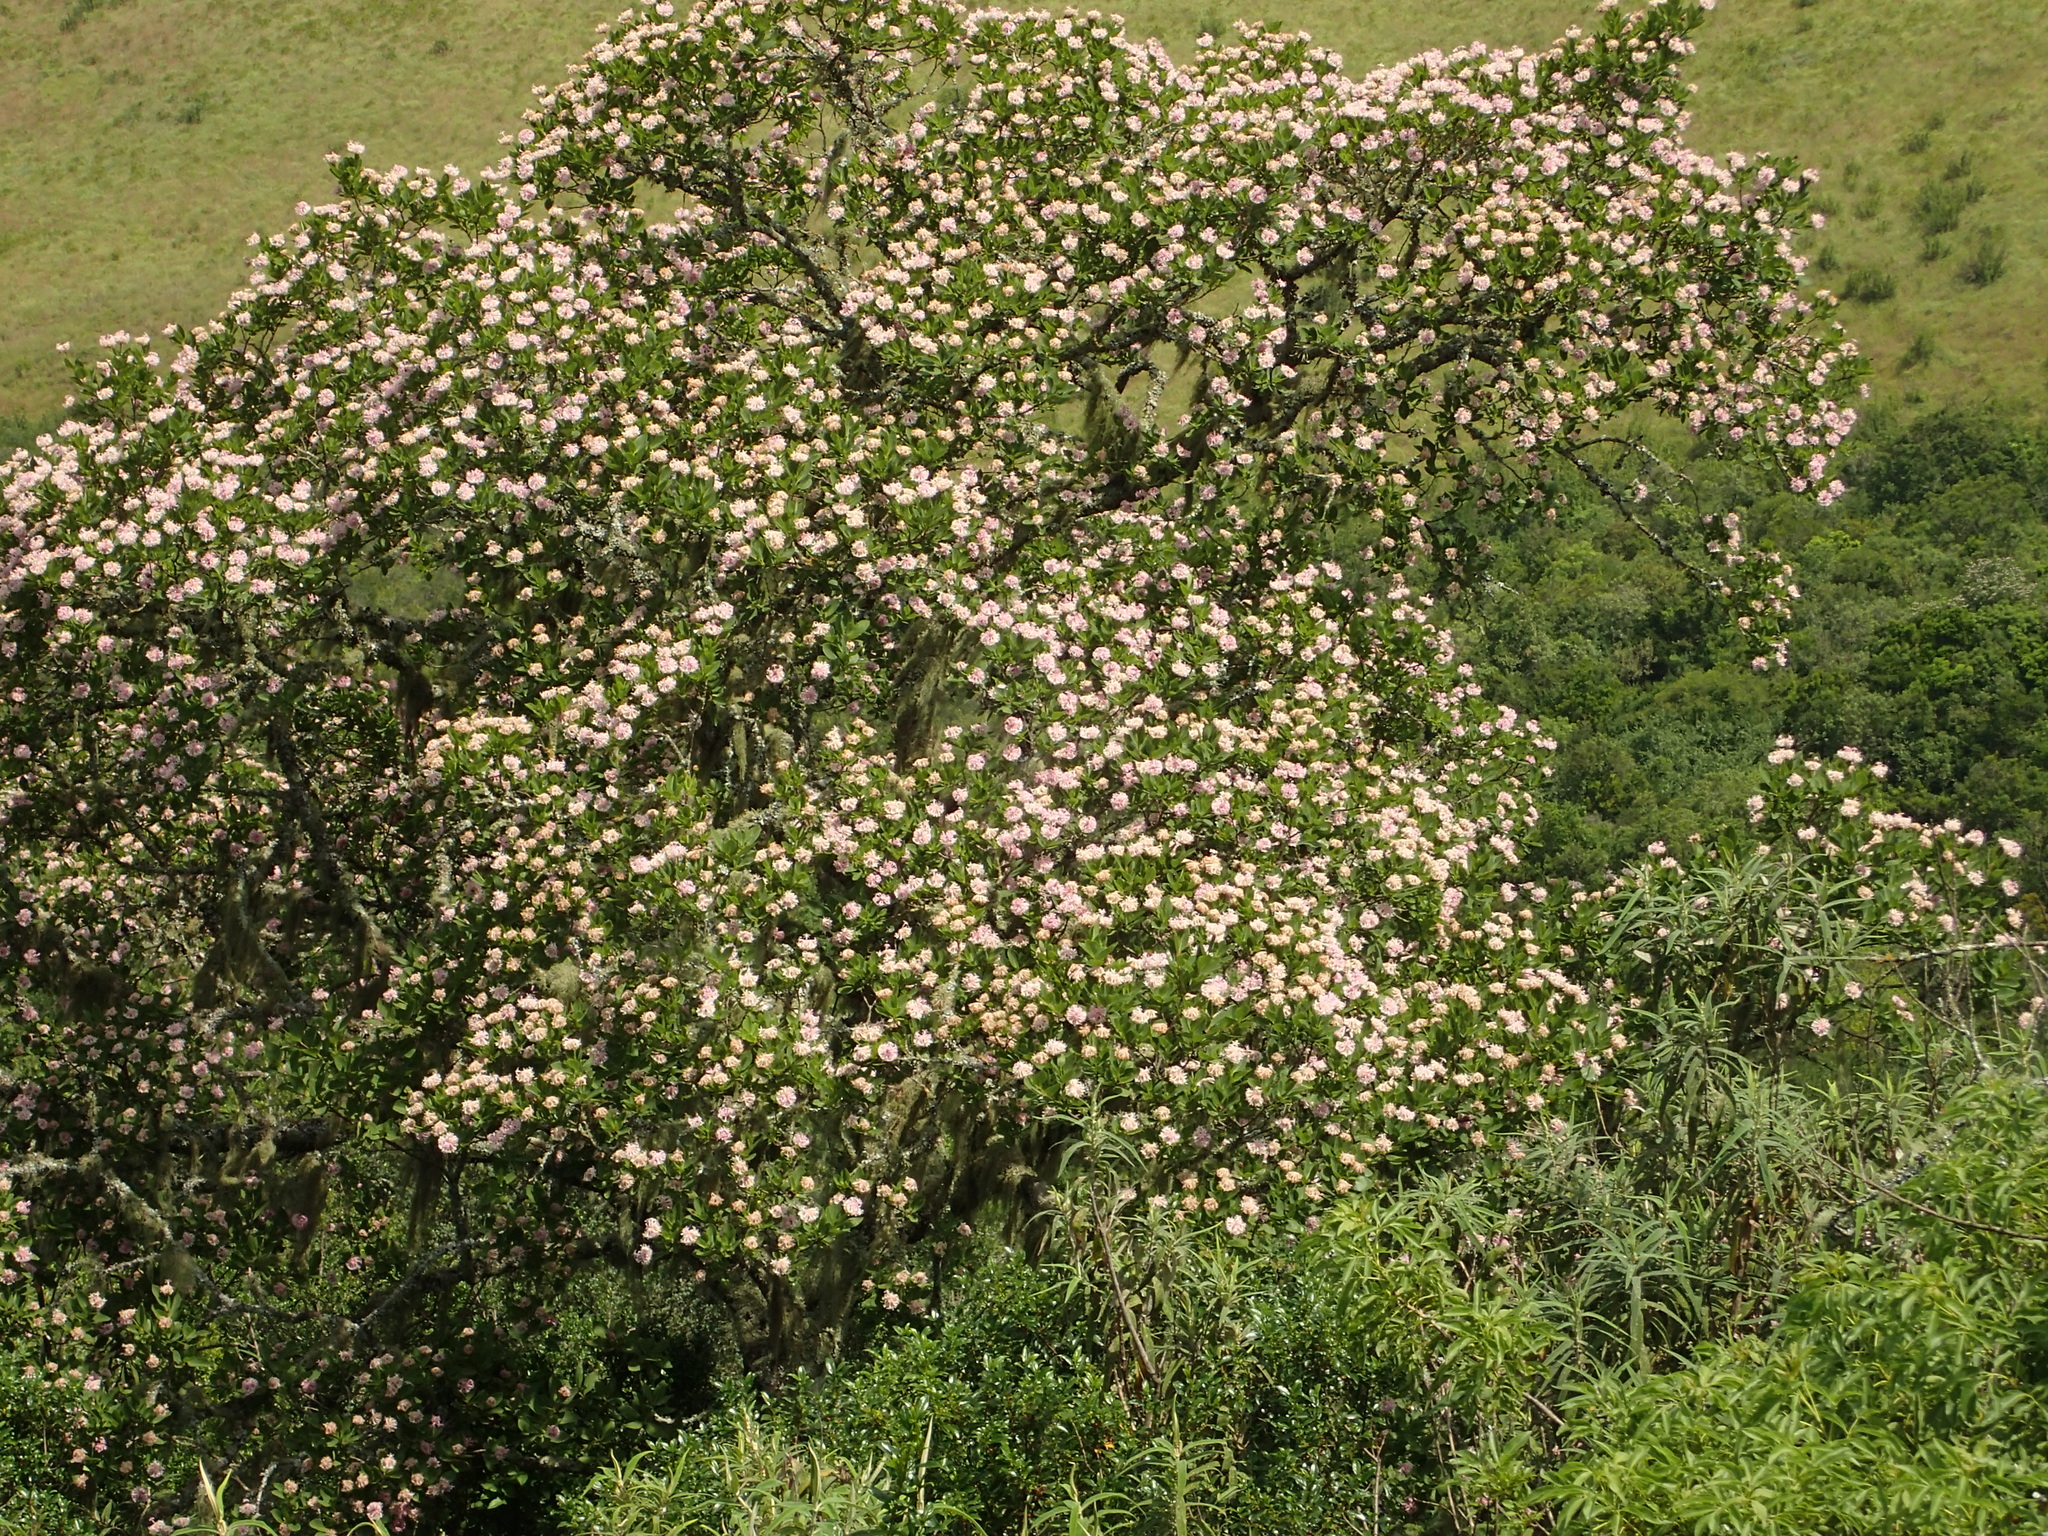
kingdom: Plantae
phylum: Tracheophyta
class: Magnoliopsida
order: Malvales
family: Thymelaeaceae
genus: Dais
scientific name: Dais cotinifolia
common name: Pompon tree
